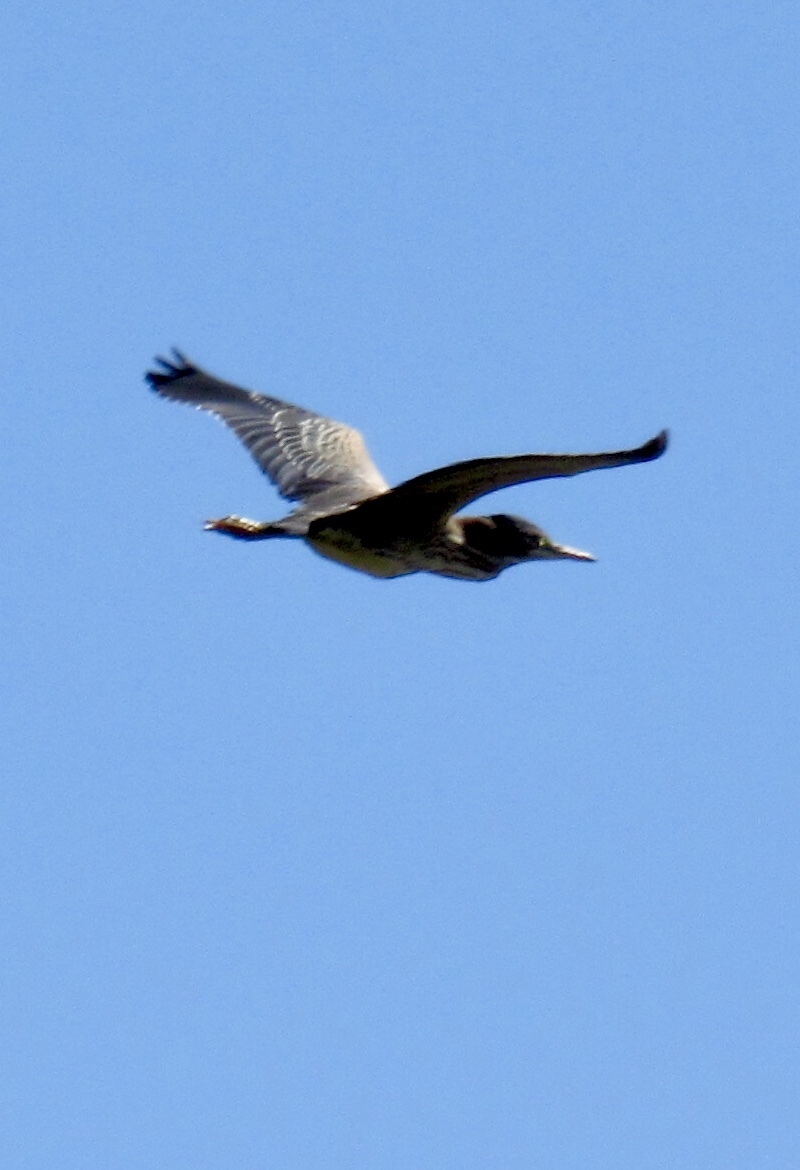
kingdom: Animalia
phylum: Chordata
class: Aves
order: Pelecaniformes
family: Ardeidae
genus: Butorides
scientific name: Butorides virescens
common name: Green heron
